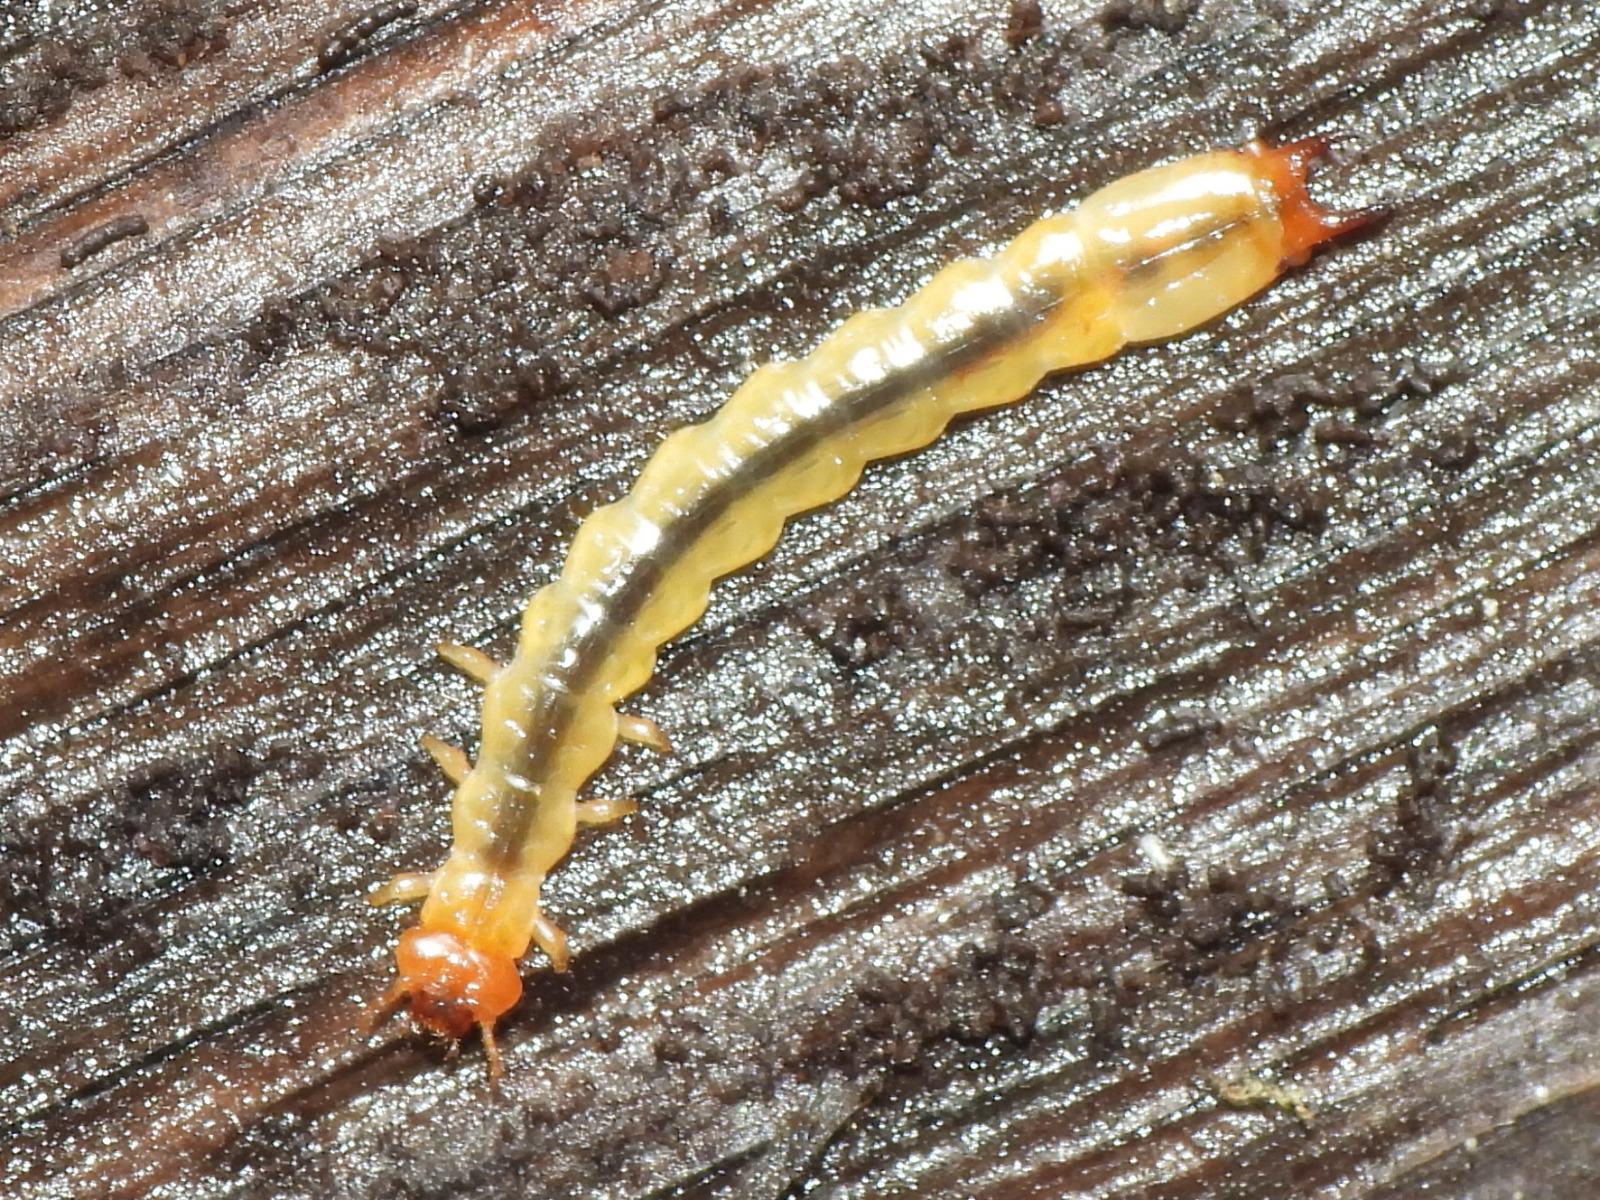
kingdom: Animalia
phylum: Arthropoda
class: Insecta
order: Coleoptera
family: Pyrochroidae
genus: Dendroides
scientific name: Dendroides canadensis
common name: Canada fire-colored beetle
